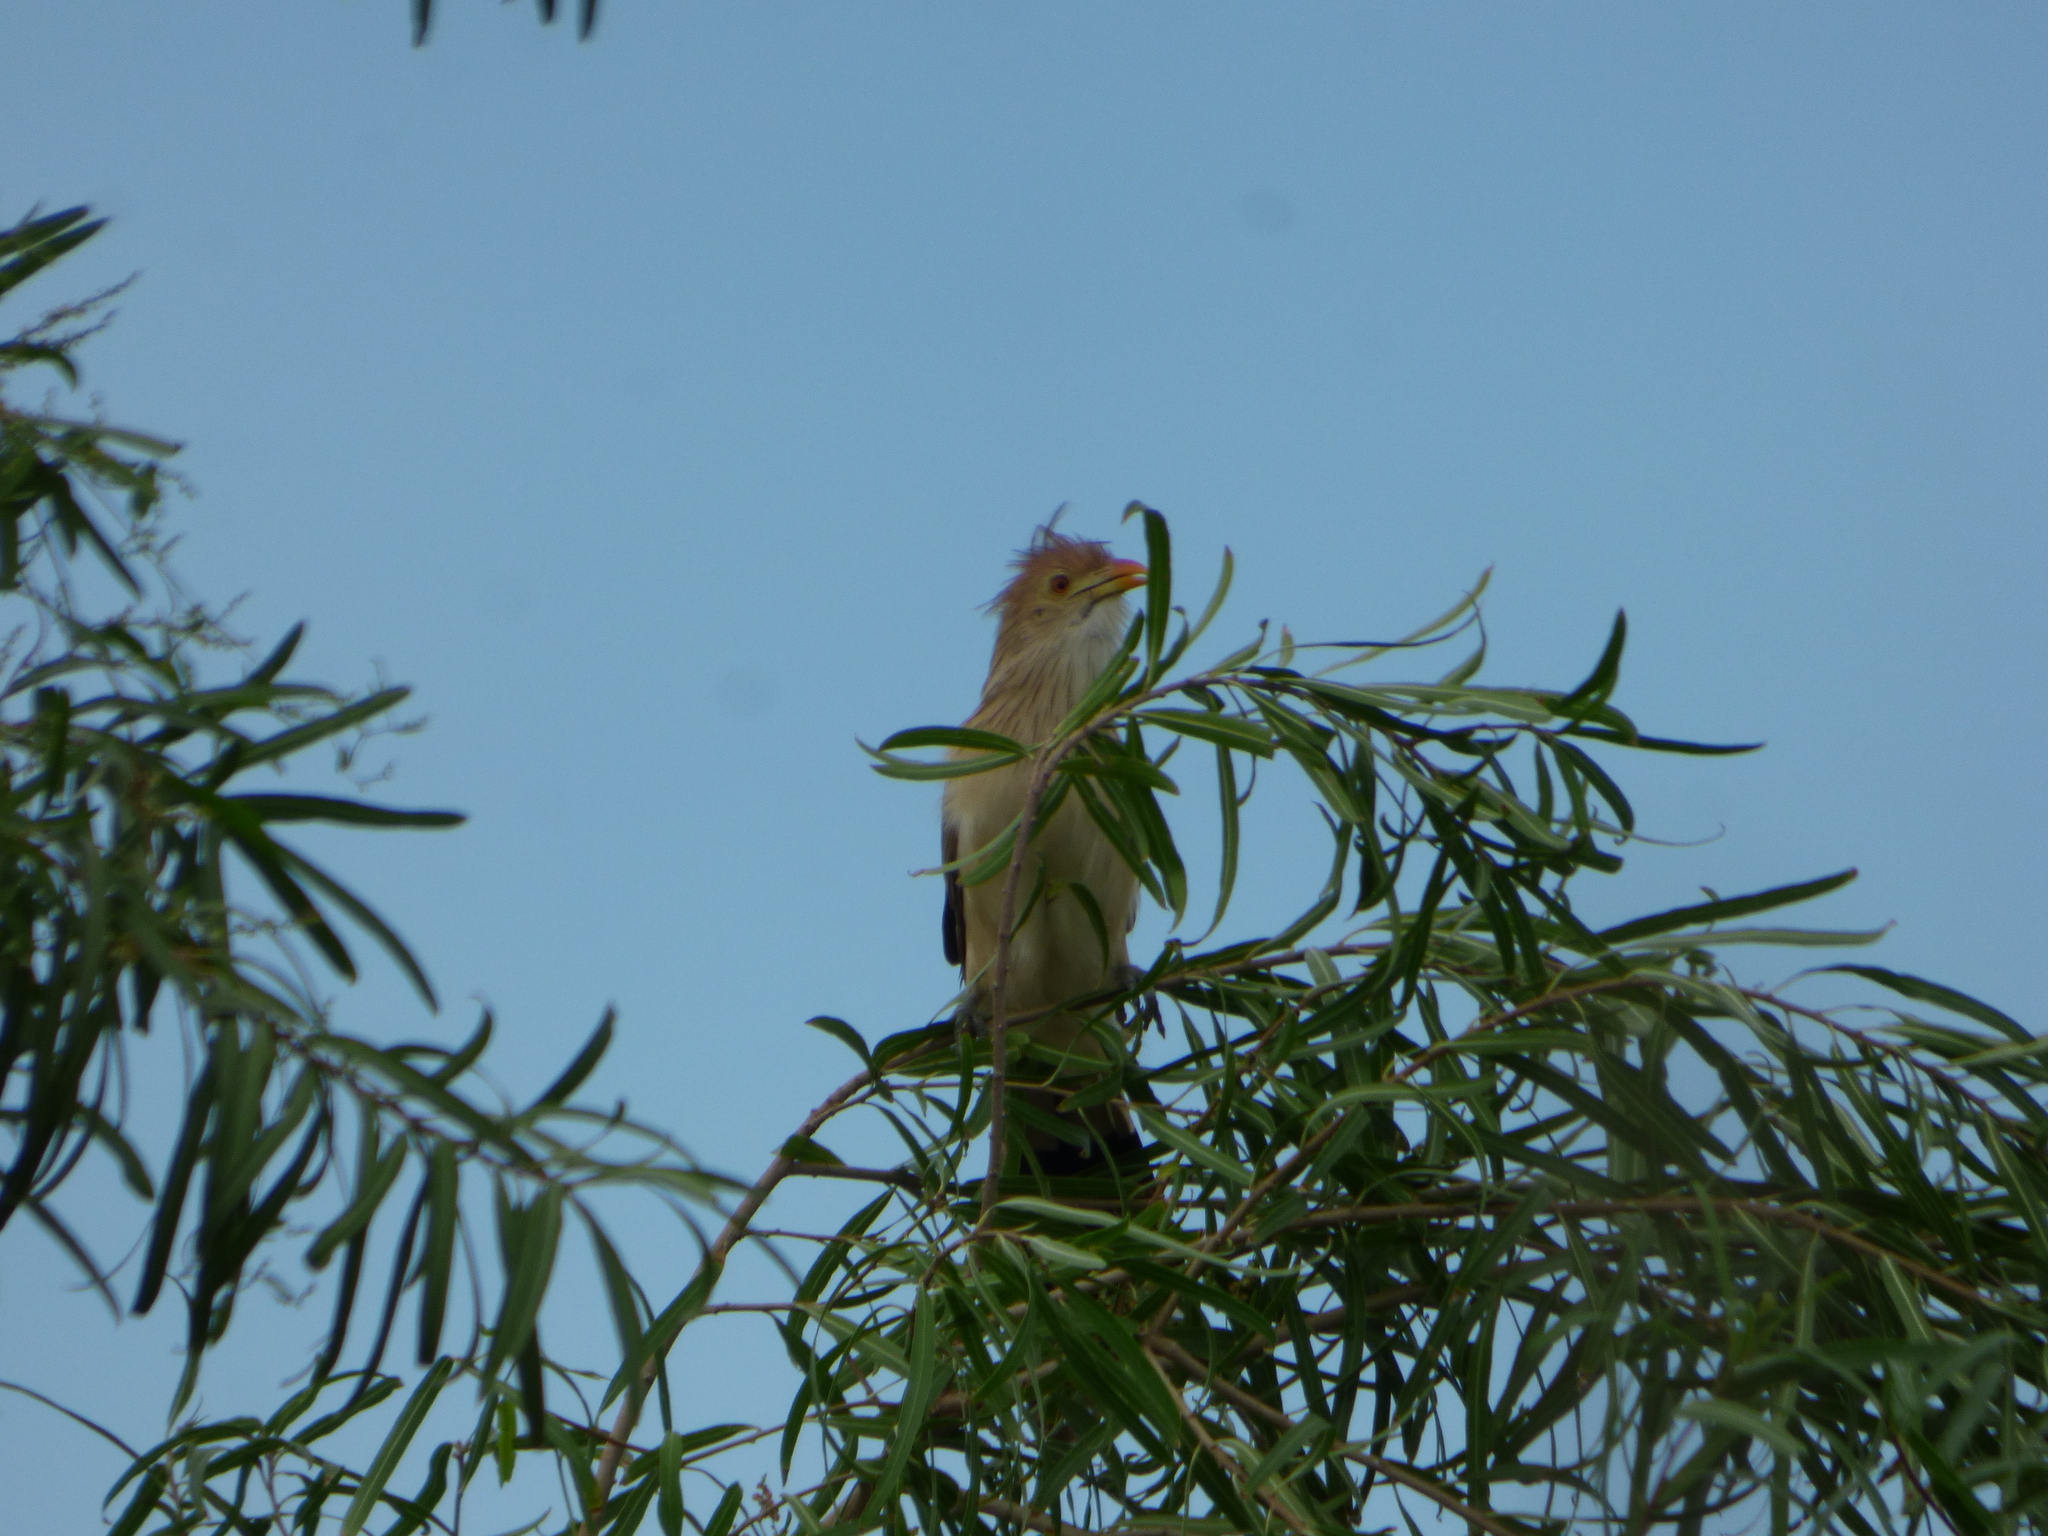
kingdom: Animalia
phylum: Chordata
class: Aves
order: Cuculiformes
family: Cuculidae
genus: Guira
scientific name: Guira guira
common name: Guira cuckoo
